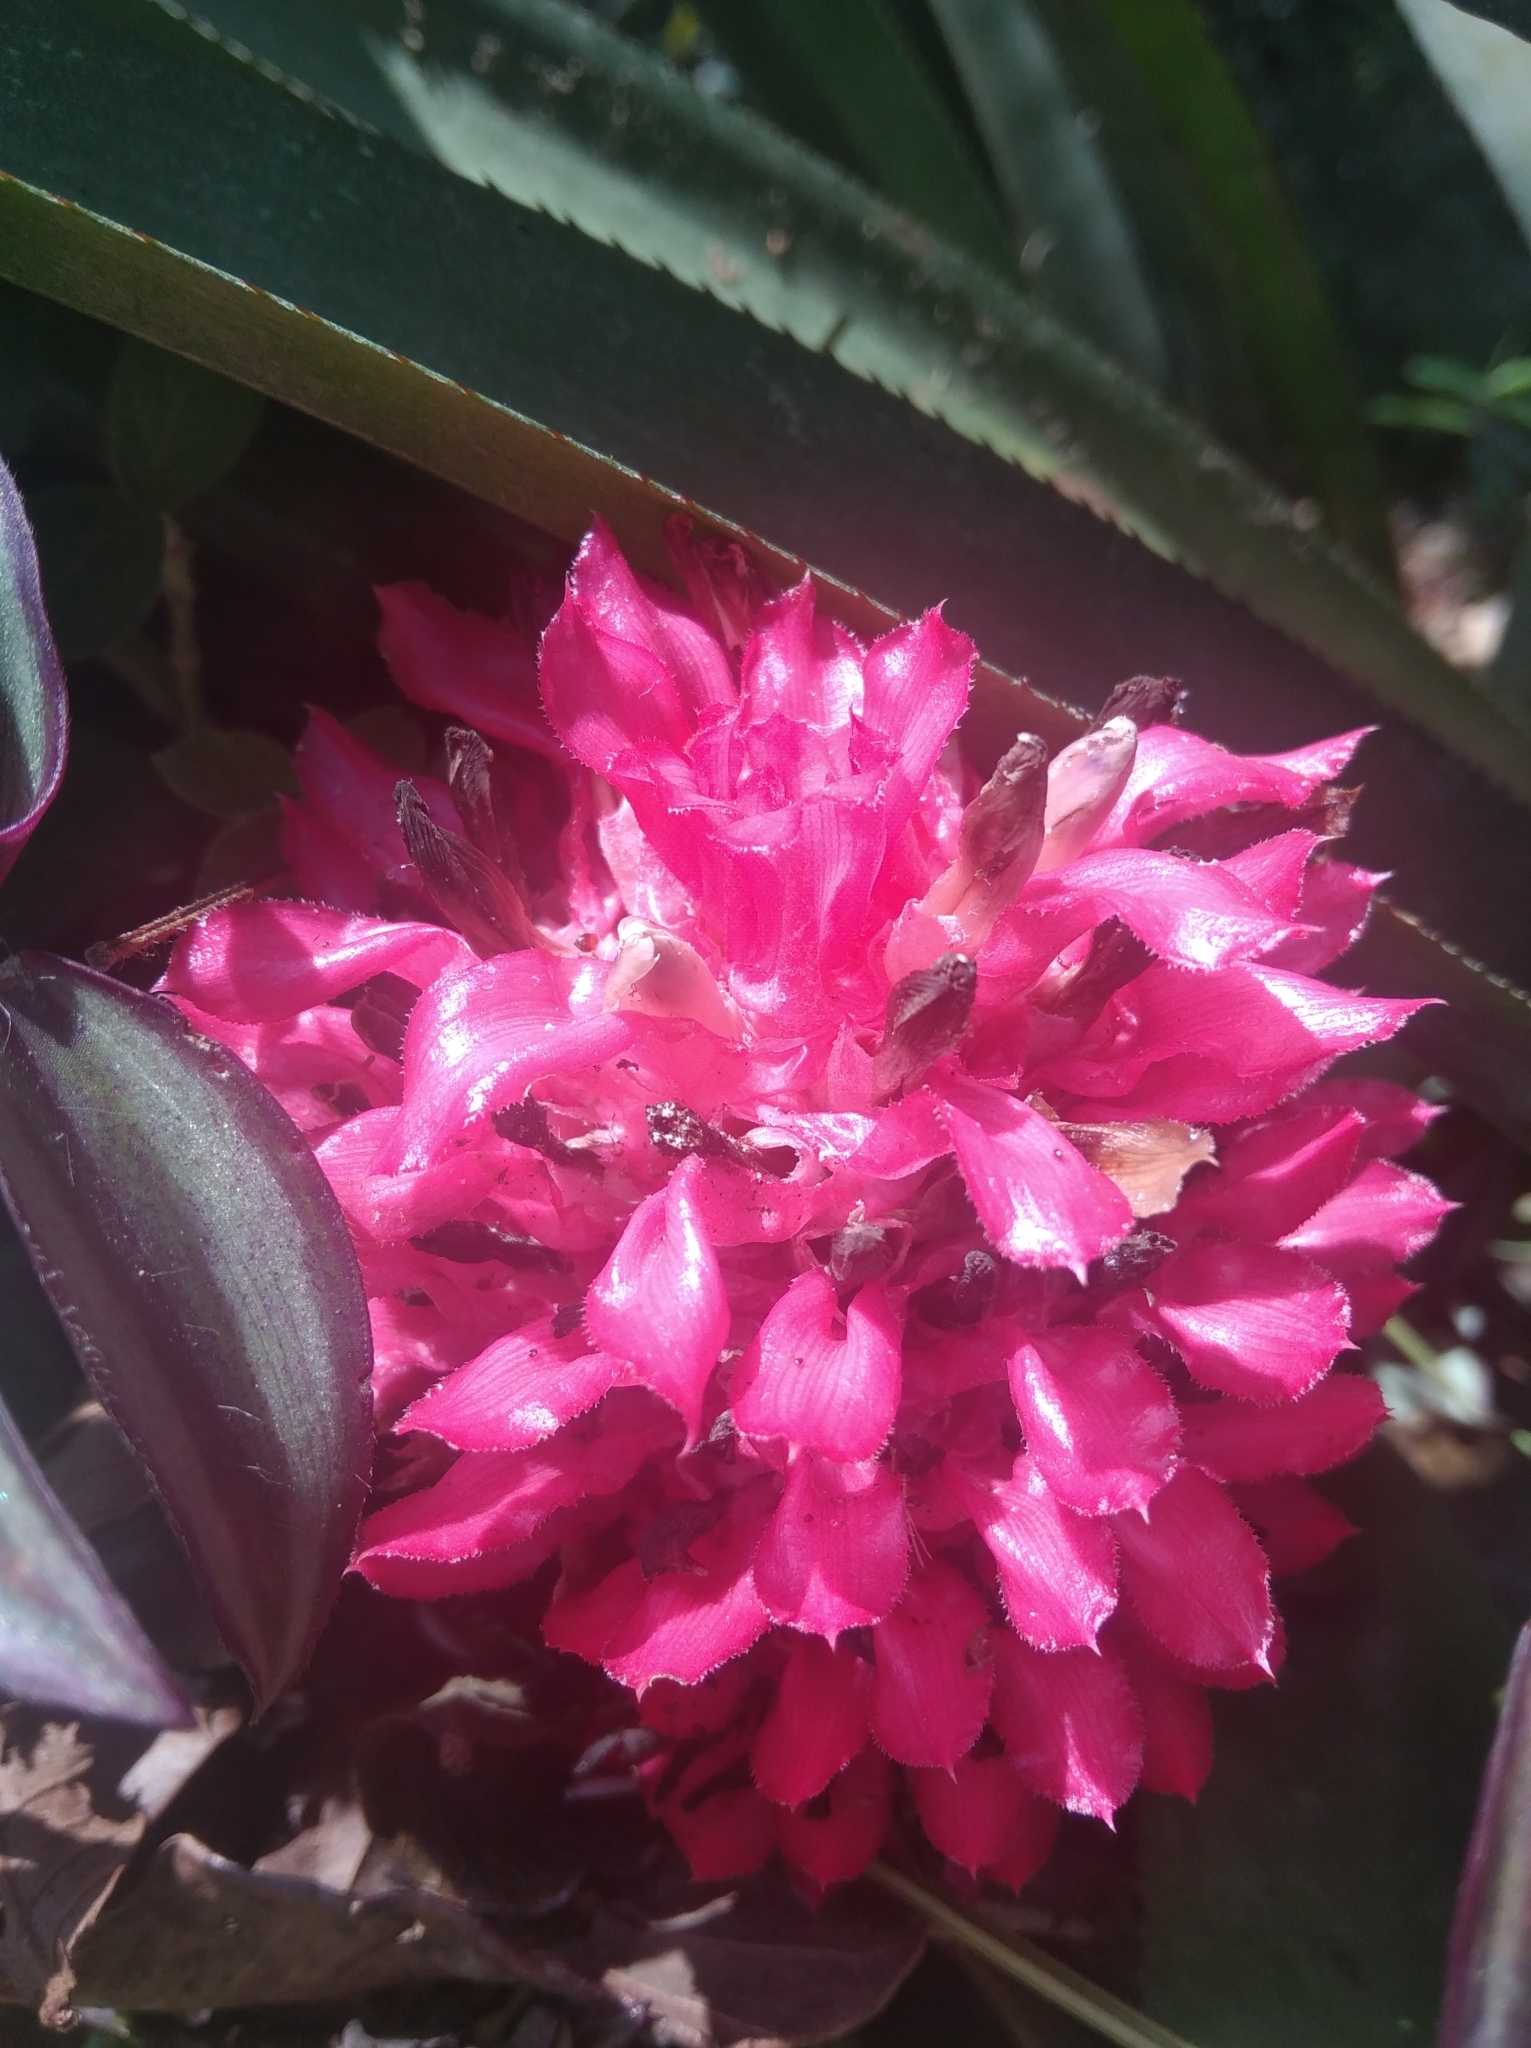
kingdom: Plantae
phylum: Tracheophyta
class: Liliopsida
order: Poales
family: Bromeliaceae
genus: Quesnelia
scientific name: Quesnelia arvensis
